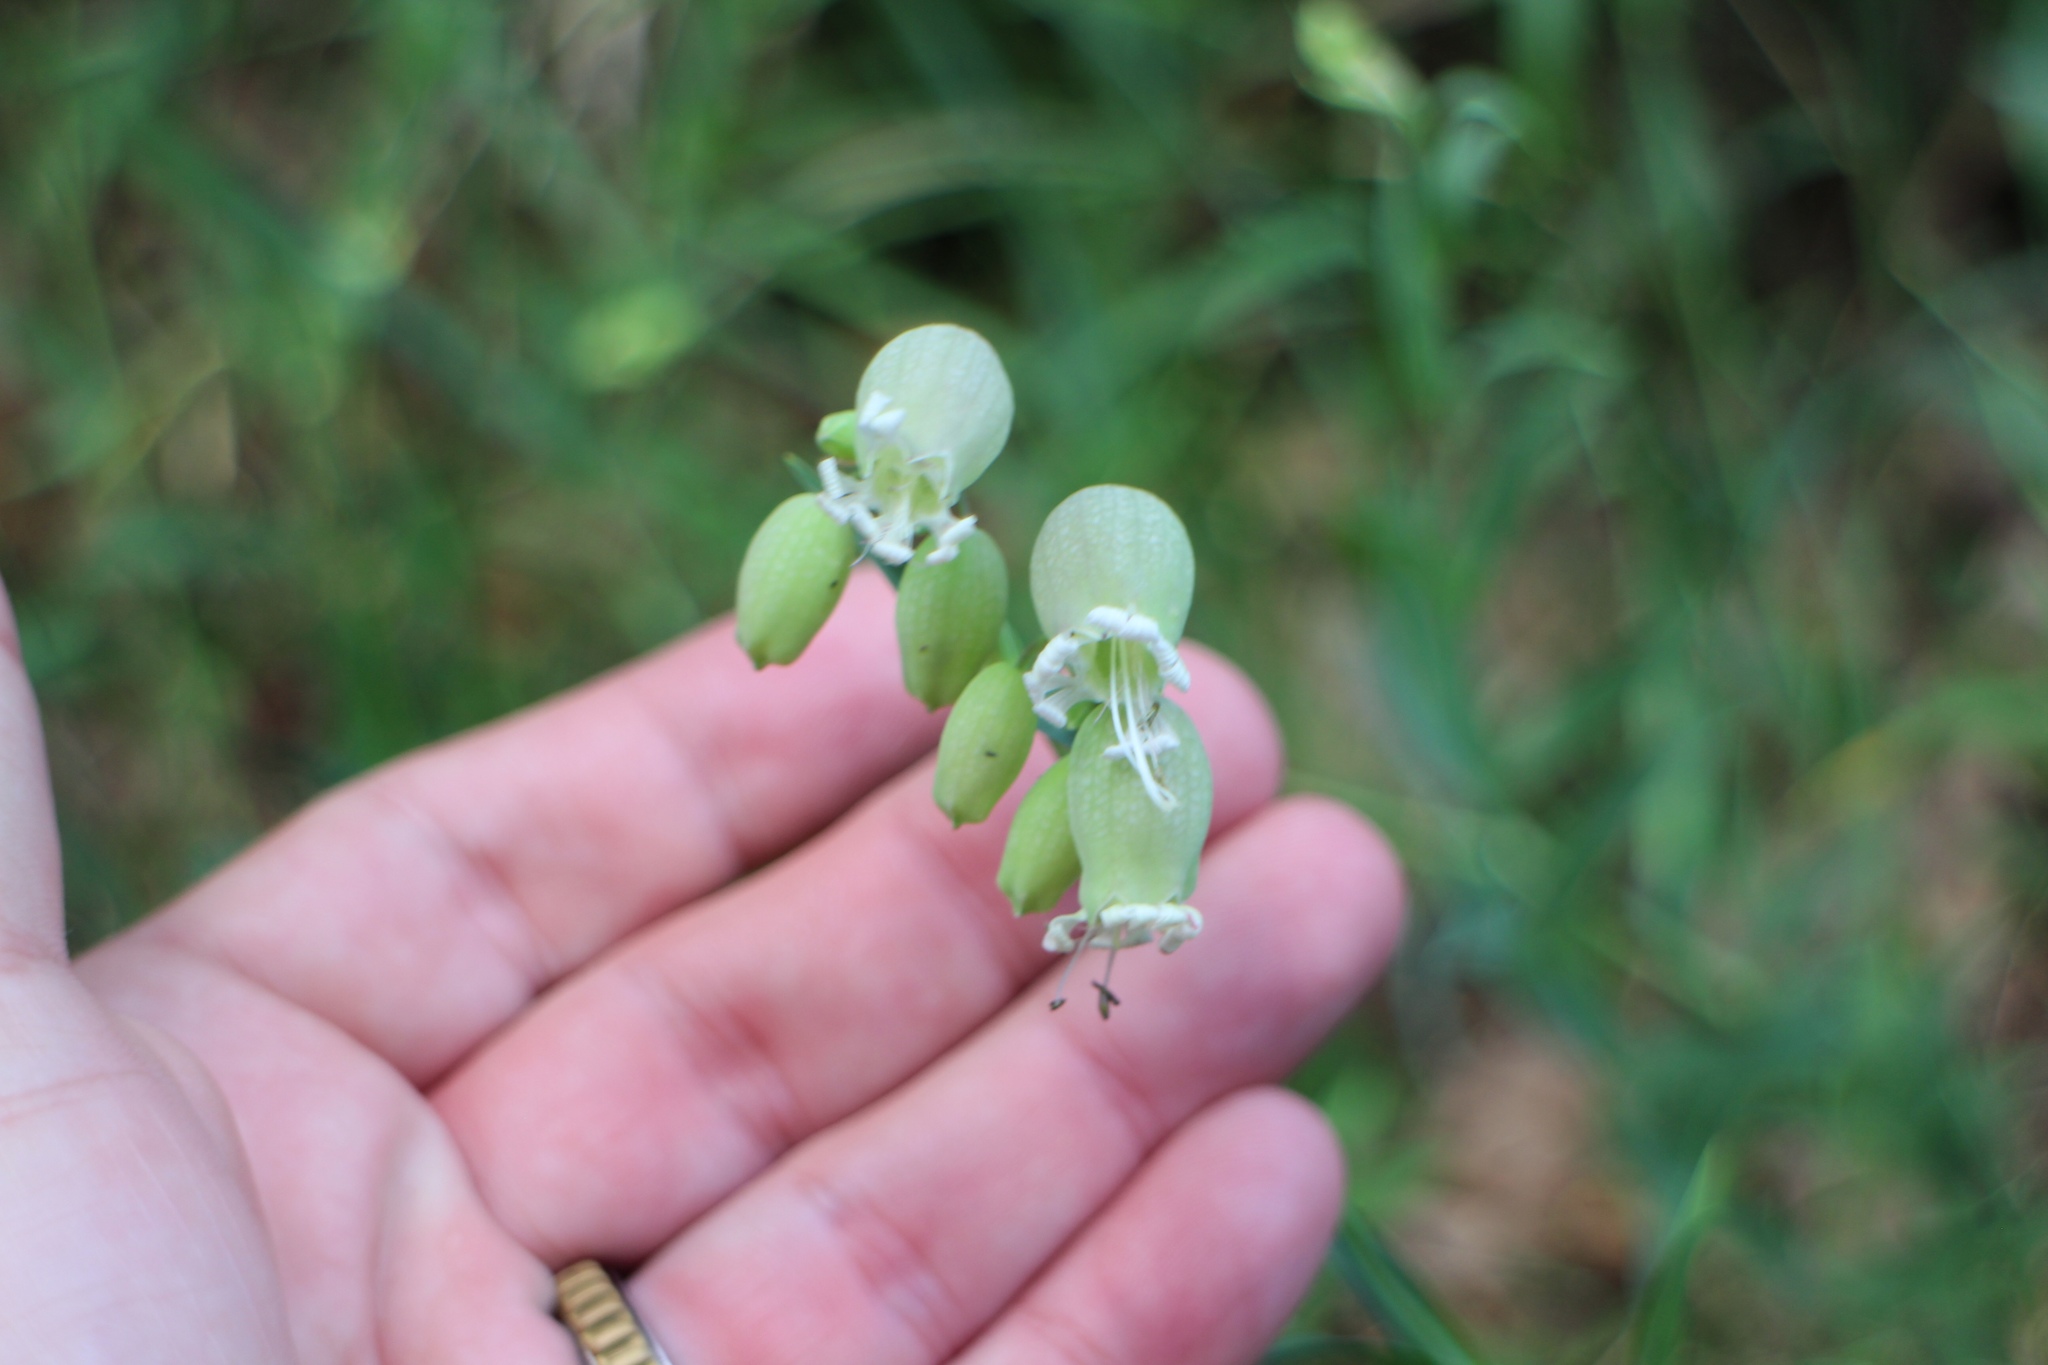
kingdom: Plantae
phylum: Tracheophyta
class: Magnoliopsida
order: Caryophyllales
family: Caryophyllaceae
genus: Silene
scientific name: Silene vulgaris
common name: Bladder campion
